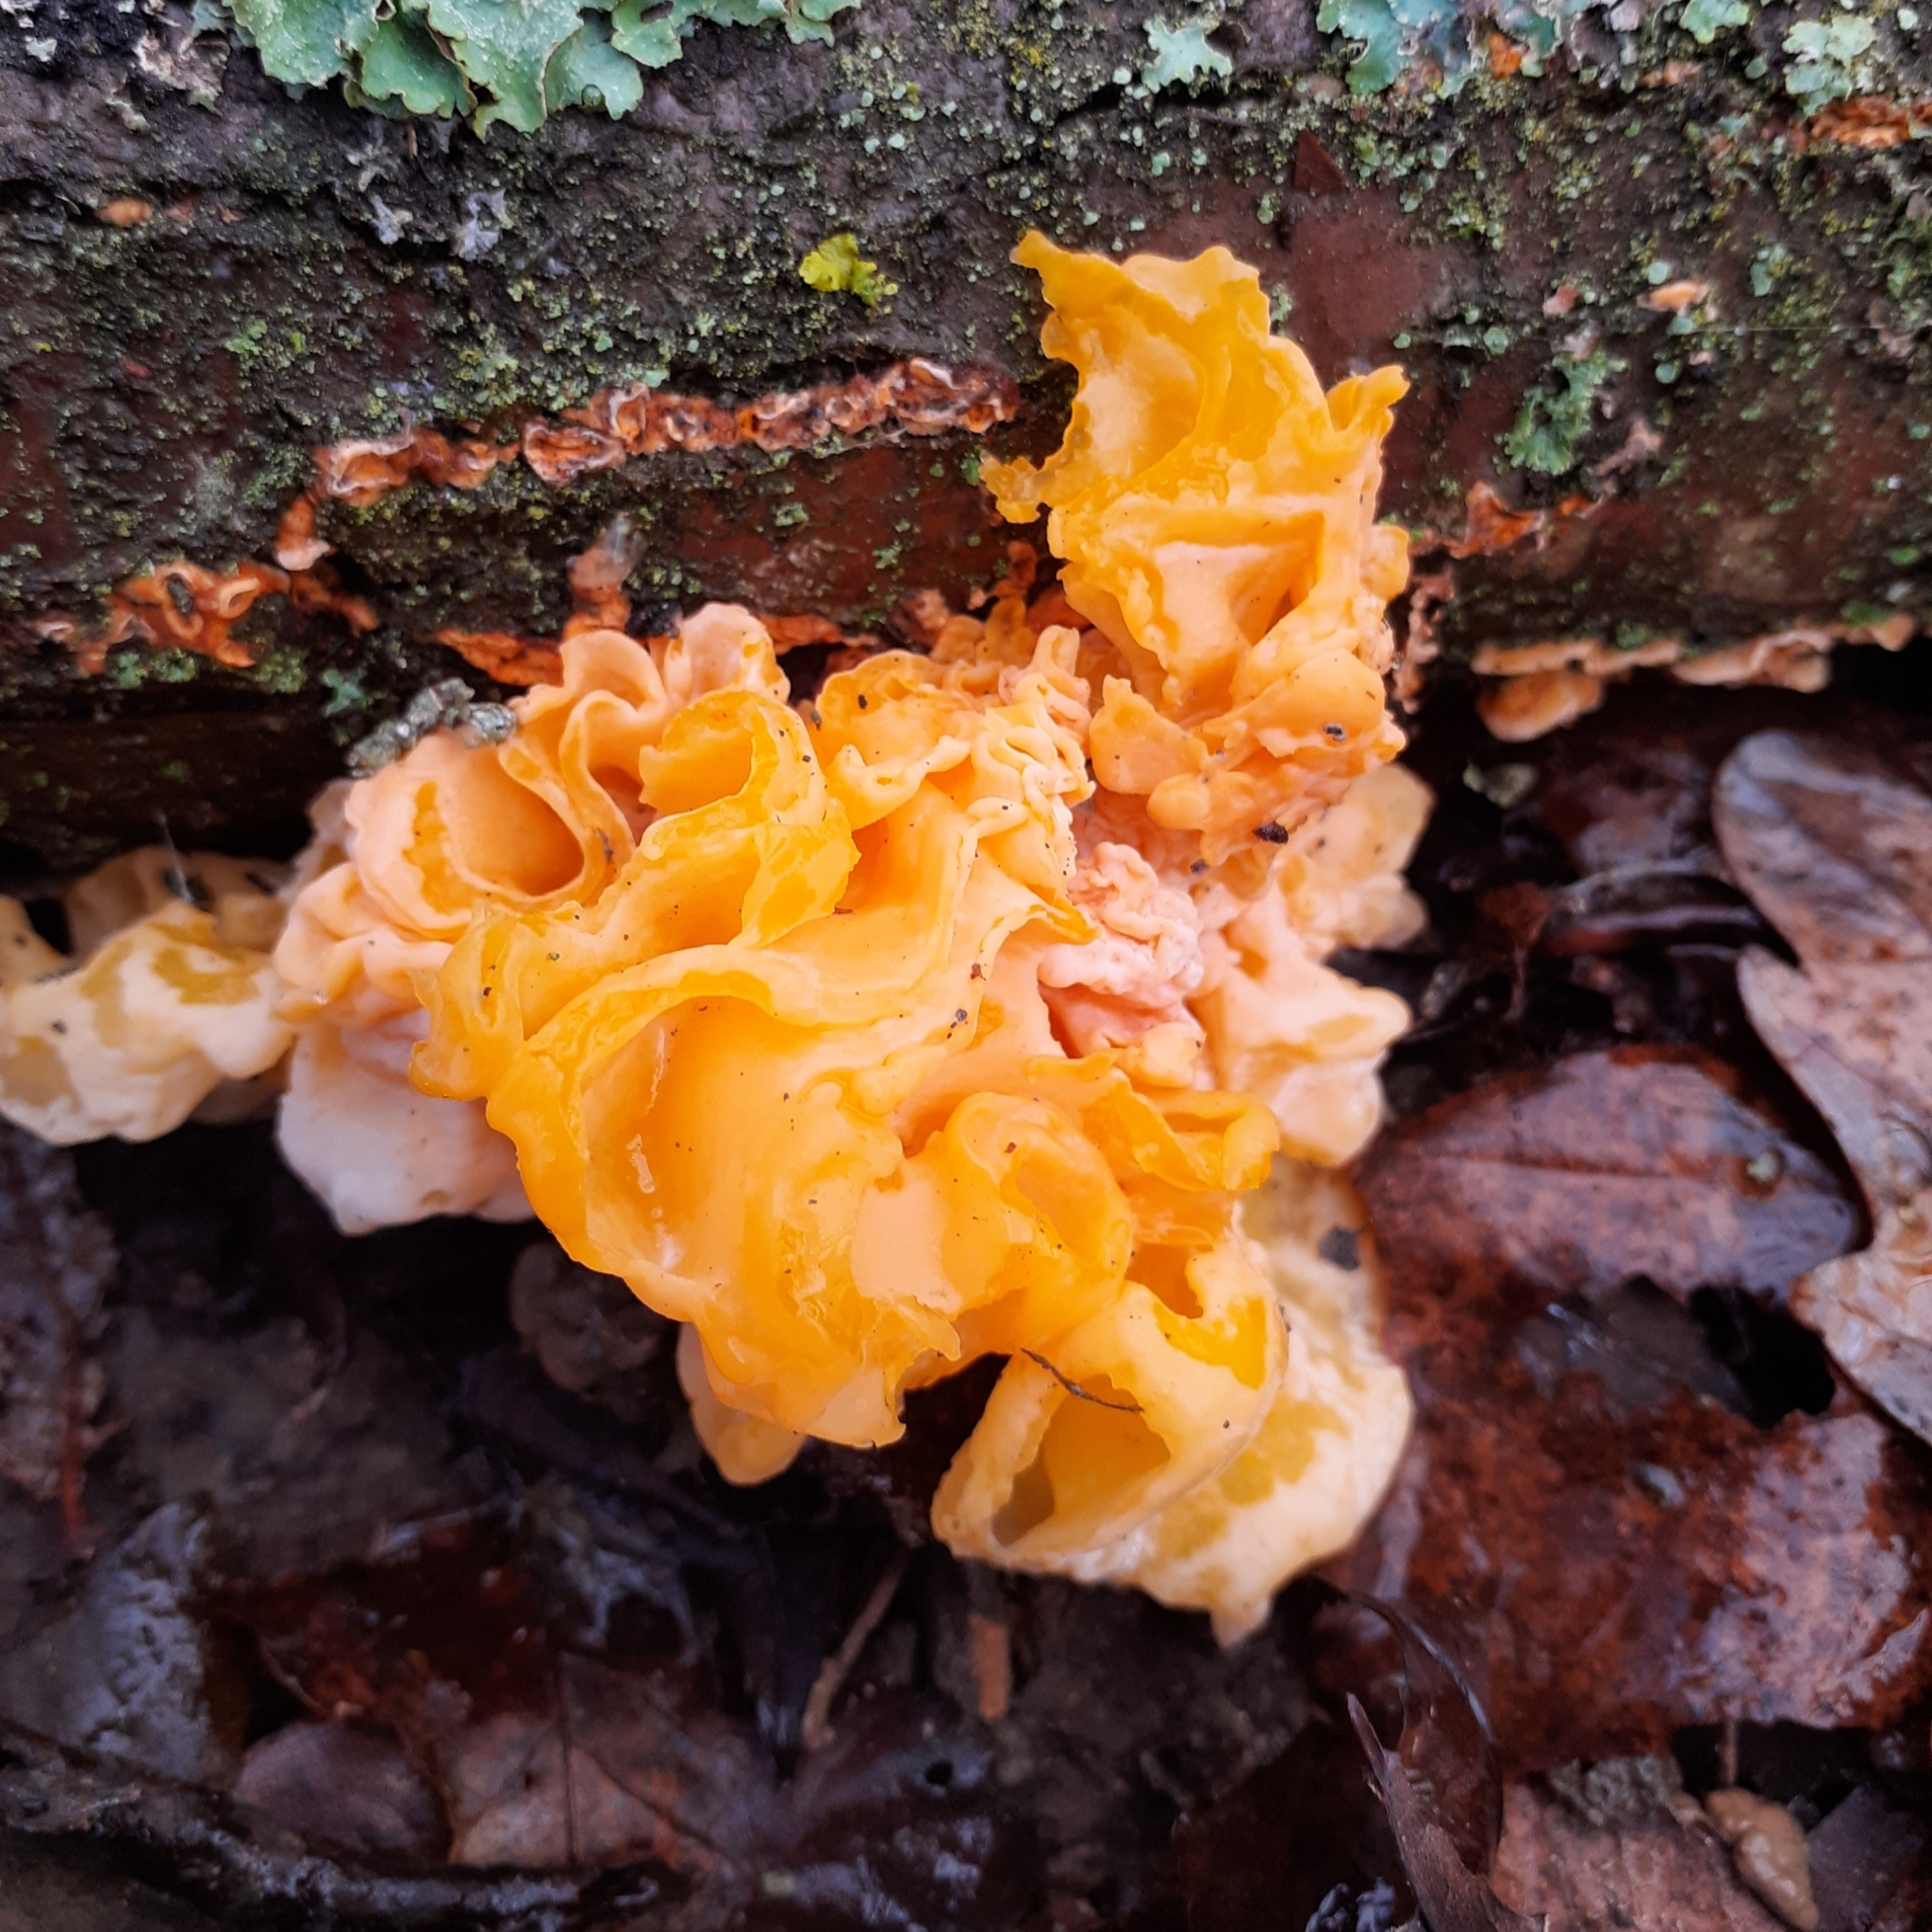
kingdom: Fungi
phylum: Basidiomycota
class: Tremellomycetes
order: Tremellales
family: Naemateliaceae
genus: Naematelia
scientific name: Naematelia aurantia
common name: Golden ear
